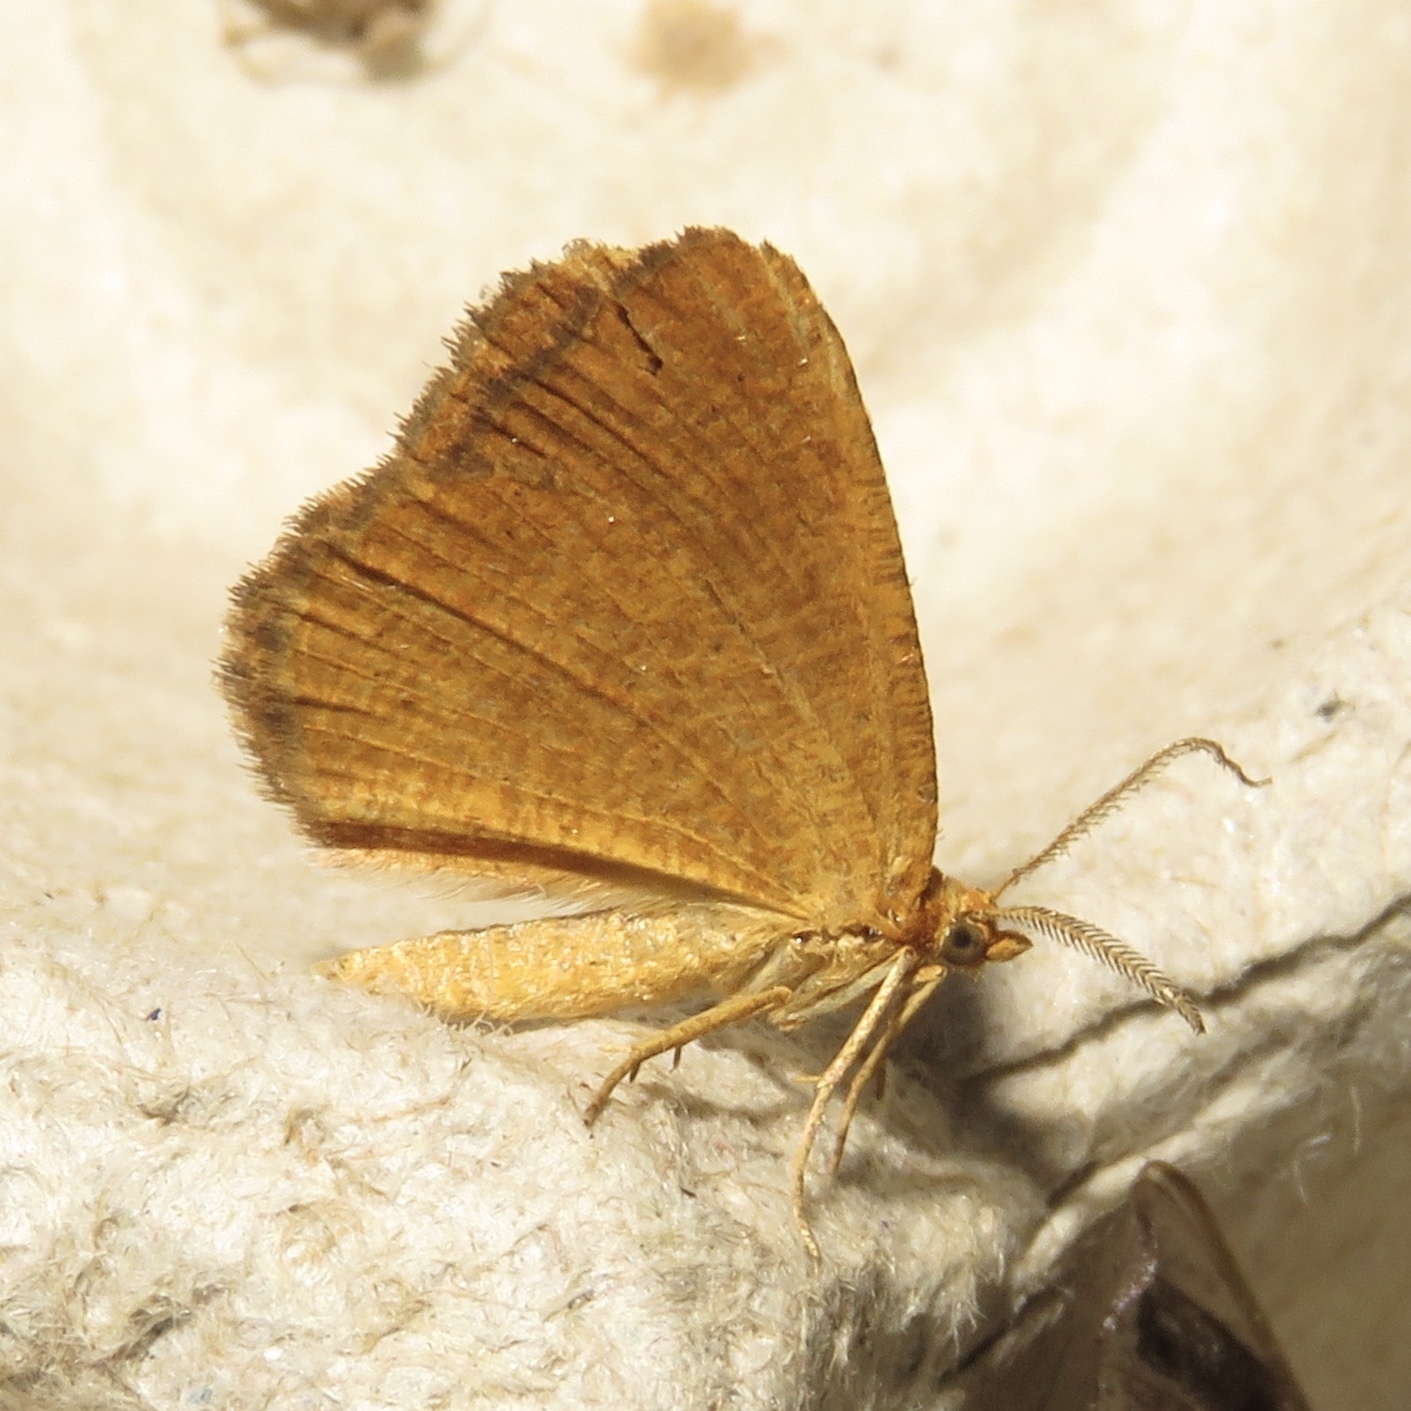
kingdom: Animalia
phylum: Arthropoda
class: Insecta
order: Lepidoptera
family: Geometridae
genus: Macaria
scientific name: Macaria brunneata
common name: Rannoch looper
